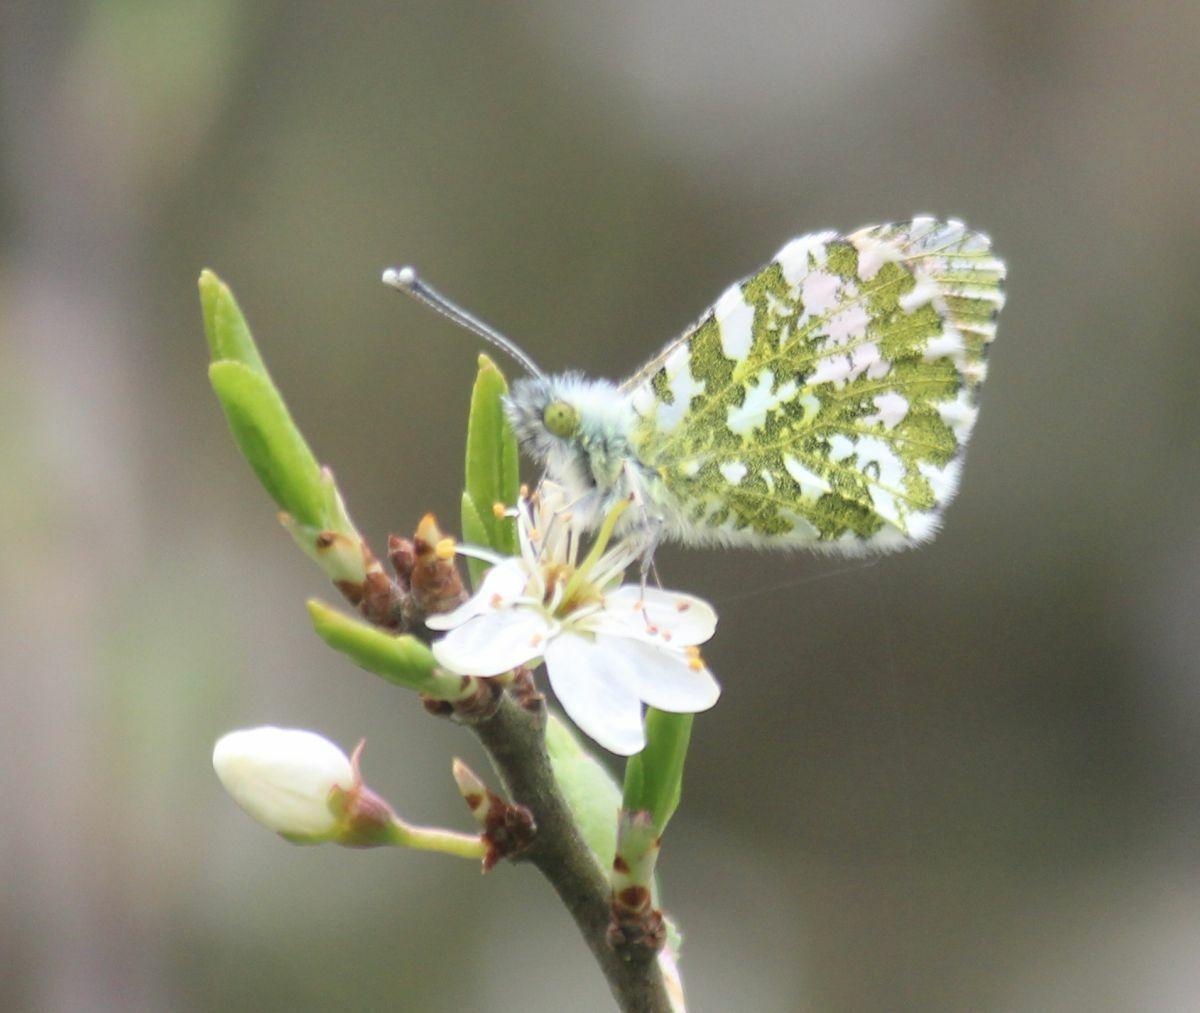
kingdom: Animalia
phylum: Arthropoda
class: Insecta
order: Lepidoptera
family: Pieridae
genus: Anthocharis
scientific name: Anthocharis cardamines
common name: Orange-tip
